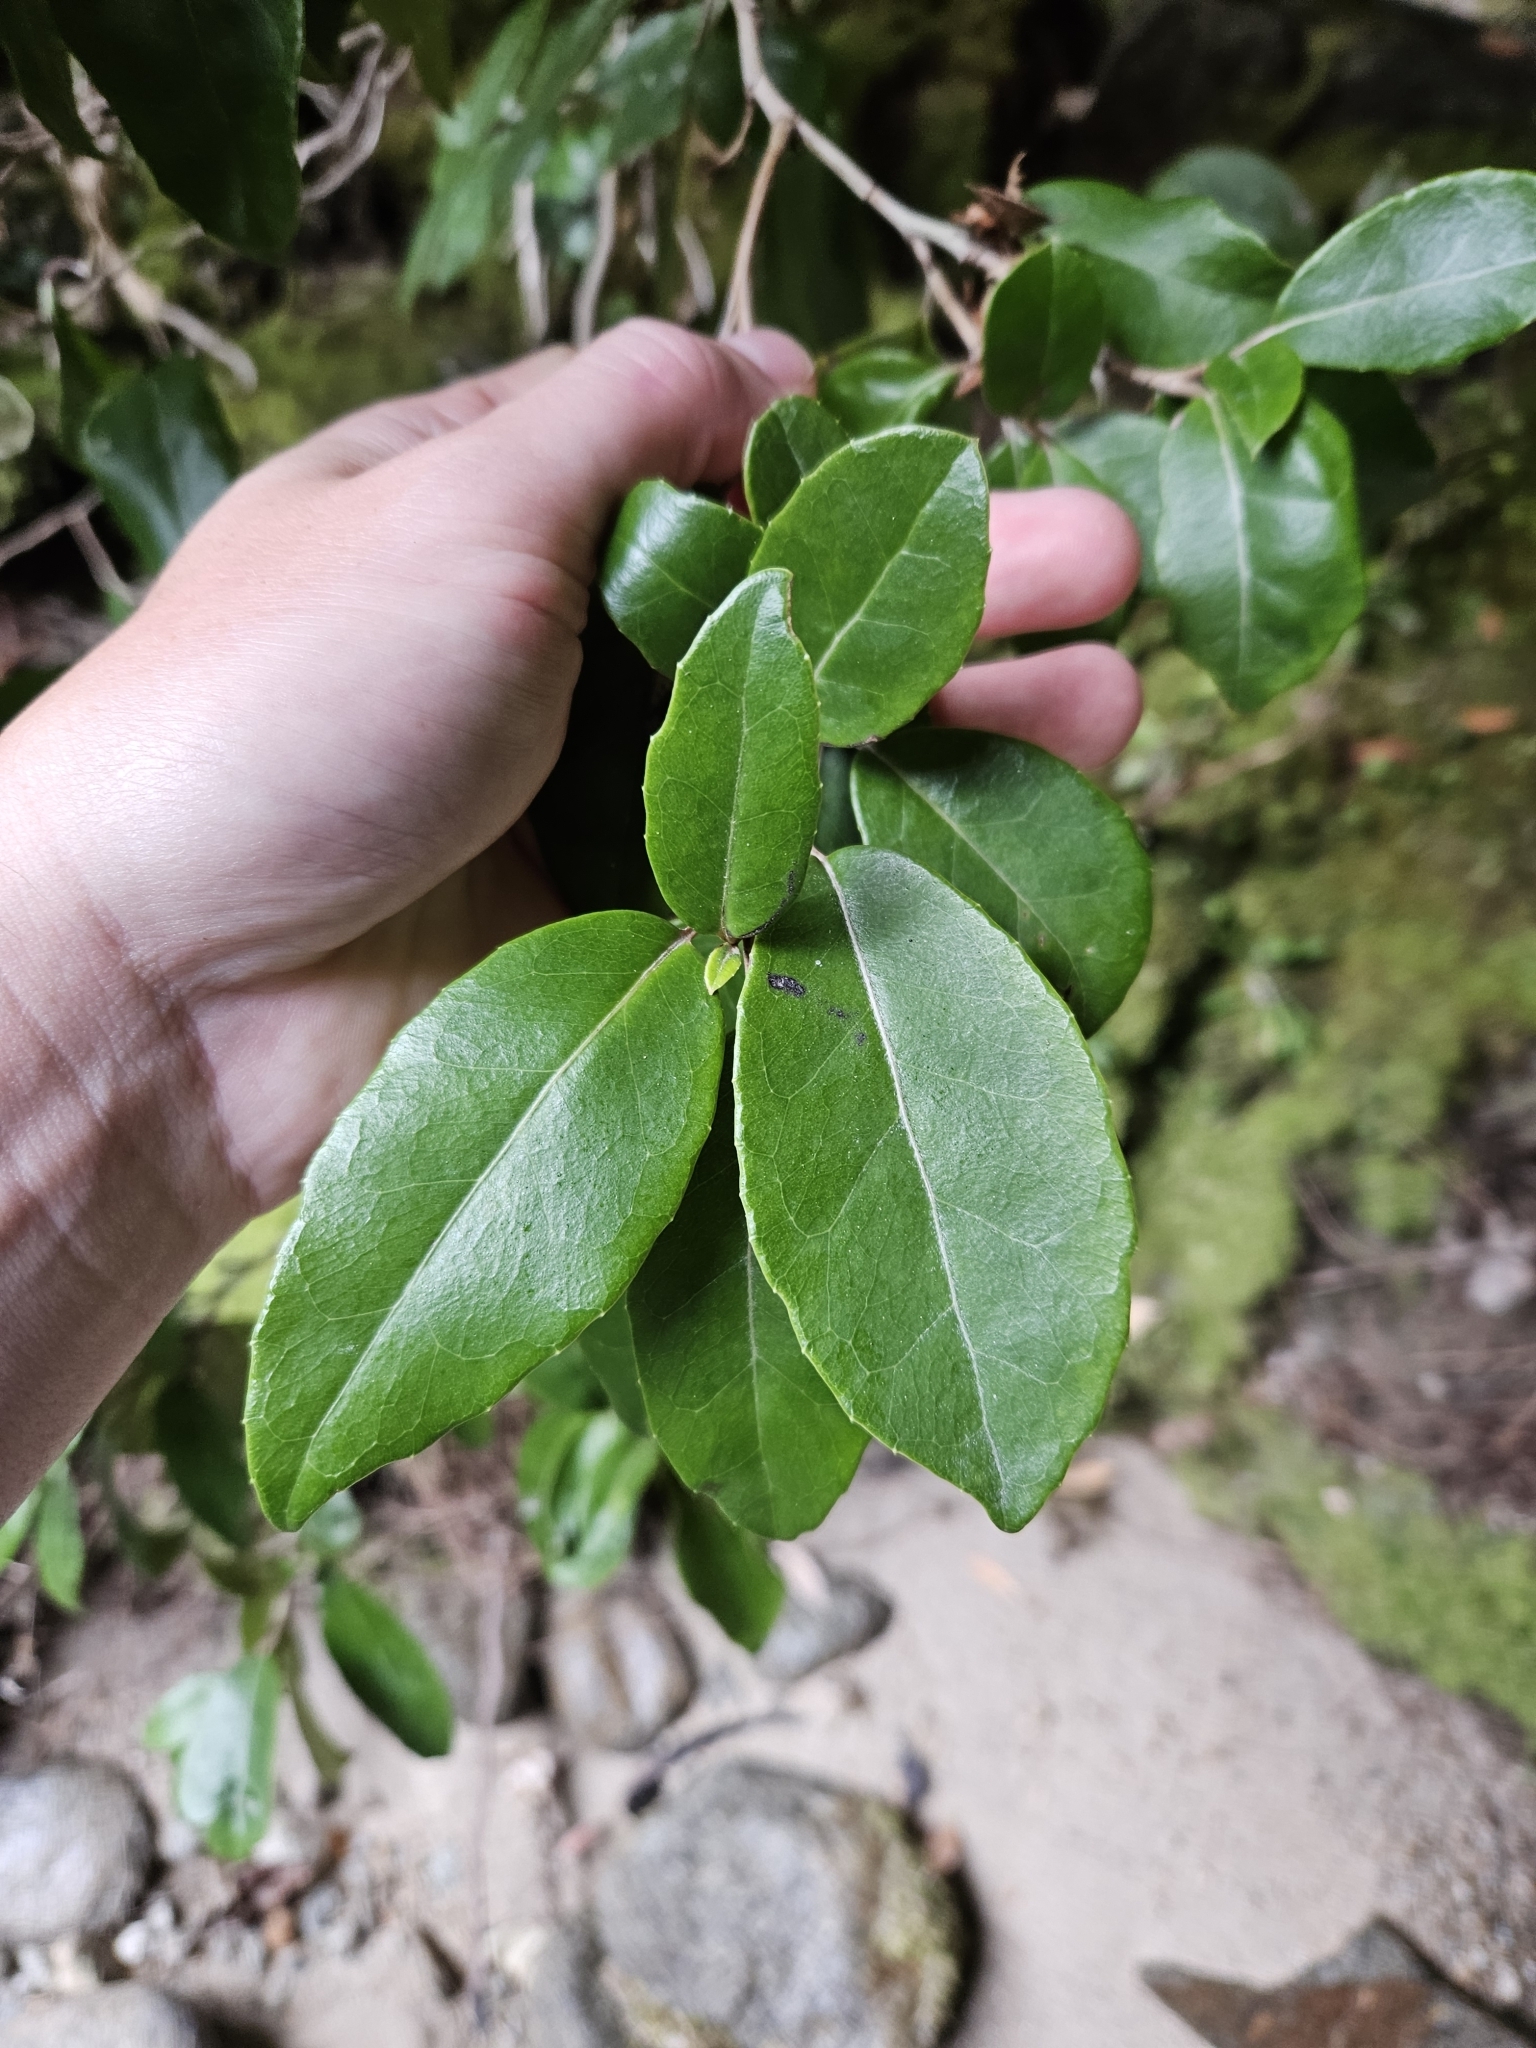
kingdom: Plantae
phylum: Tracheophyta
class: Magnoliopsida
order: Asterales
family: Asteraceae
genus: Olearia
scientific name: Olearia arborescens
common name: Glossy tree daisy
